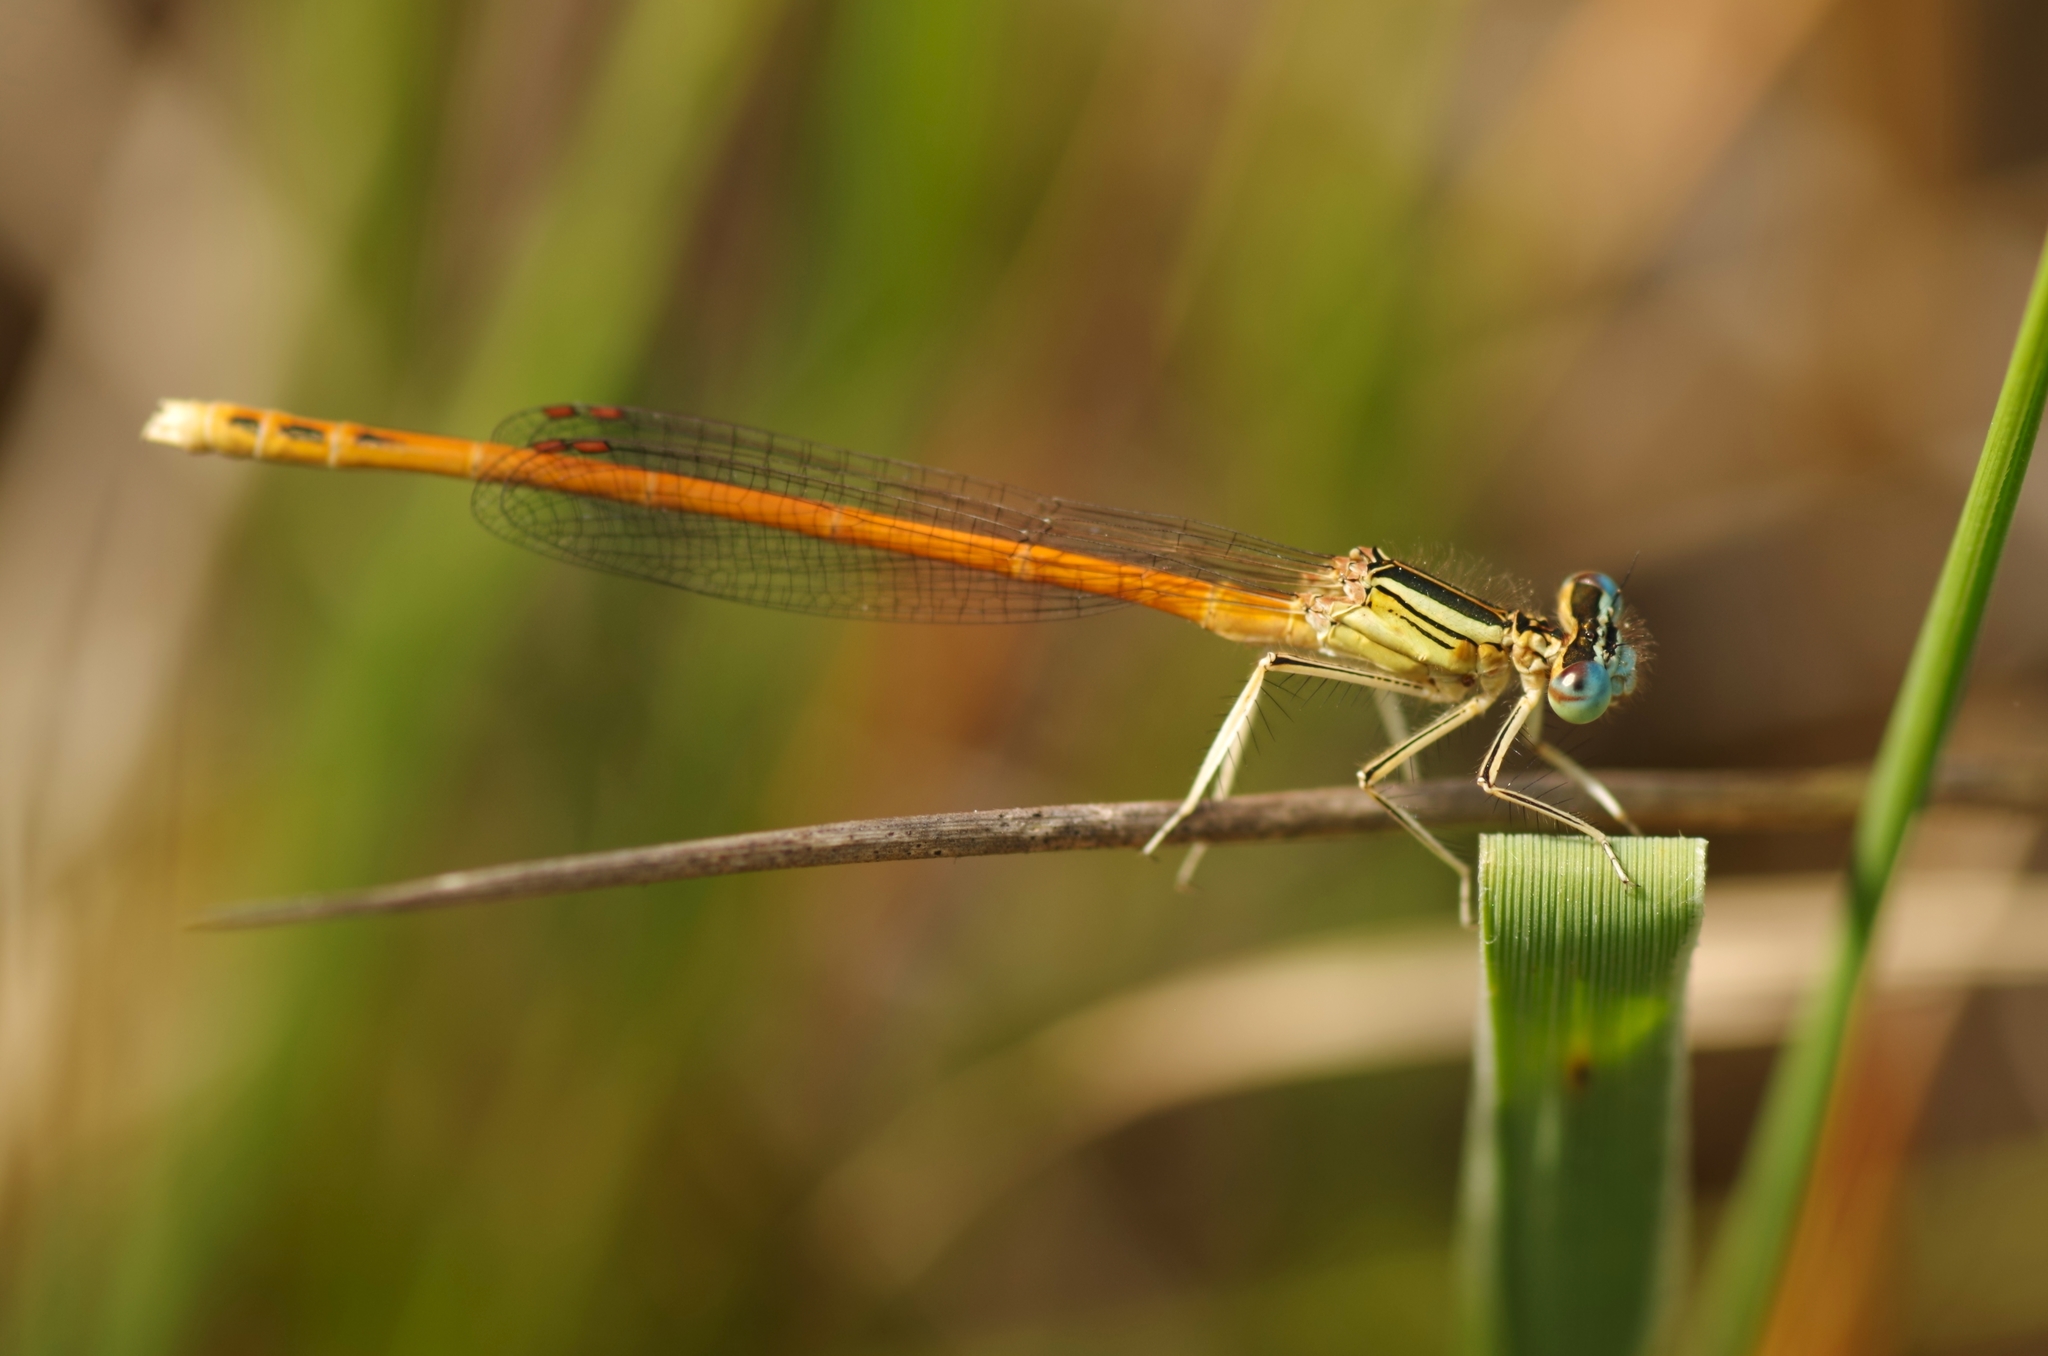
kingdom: Animalia
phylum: Arthropoda
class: Insecta
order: Odonata
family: Platycnemididae
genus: Platycnemis
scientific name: Platycnemis acutipennis
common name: Orange featherleg
